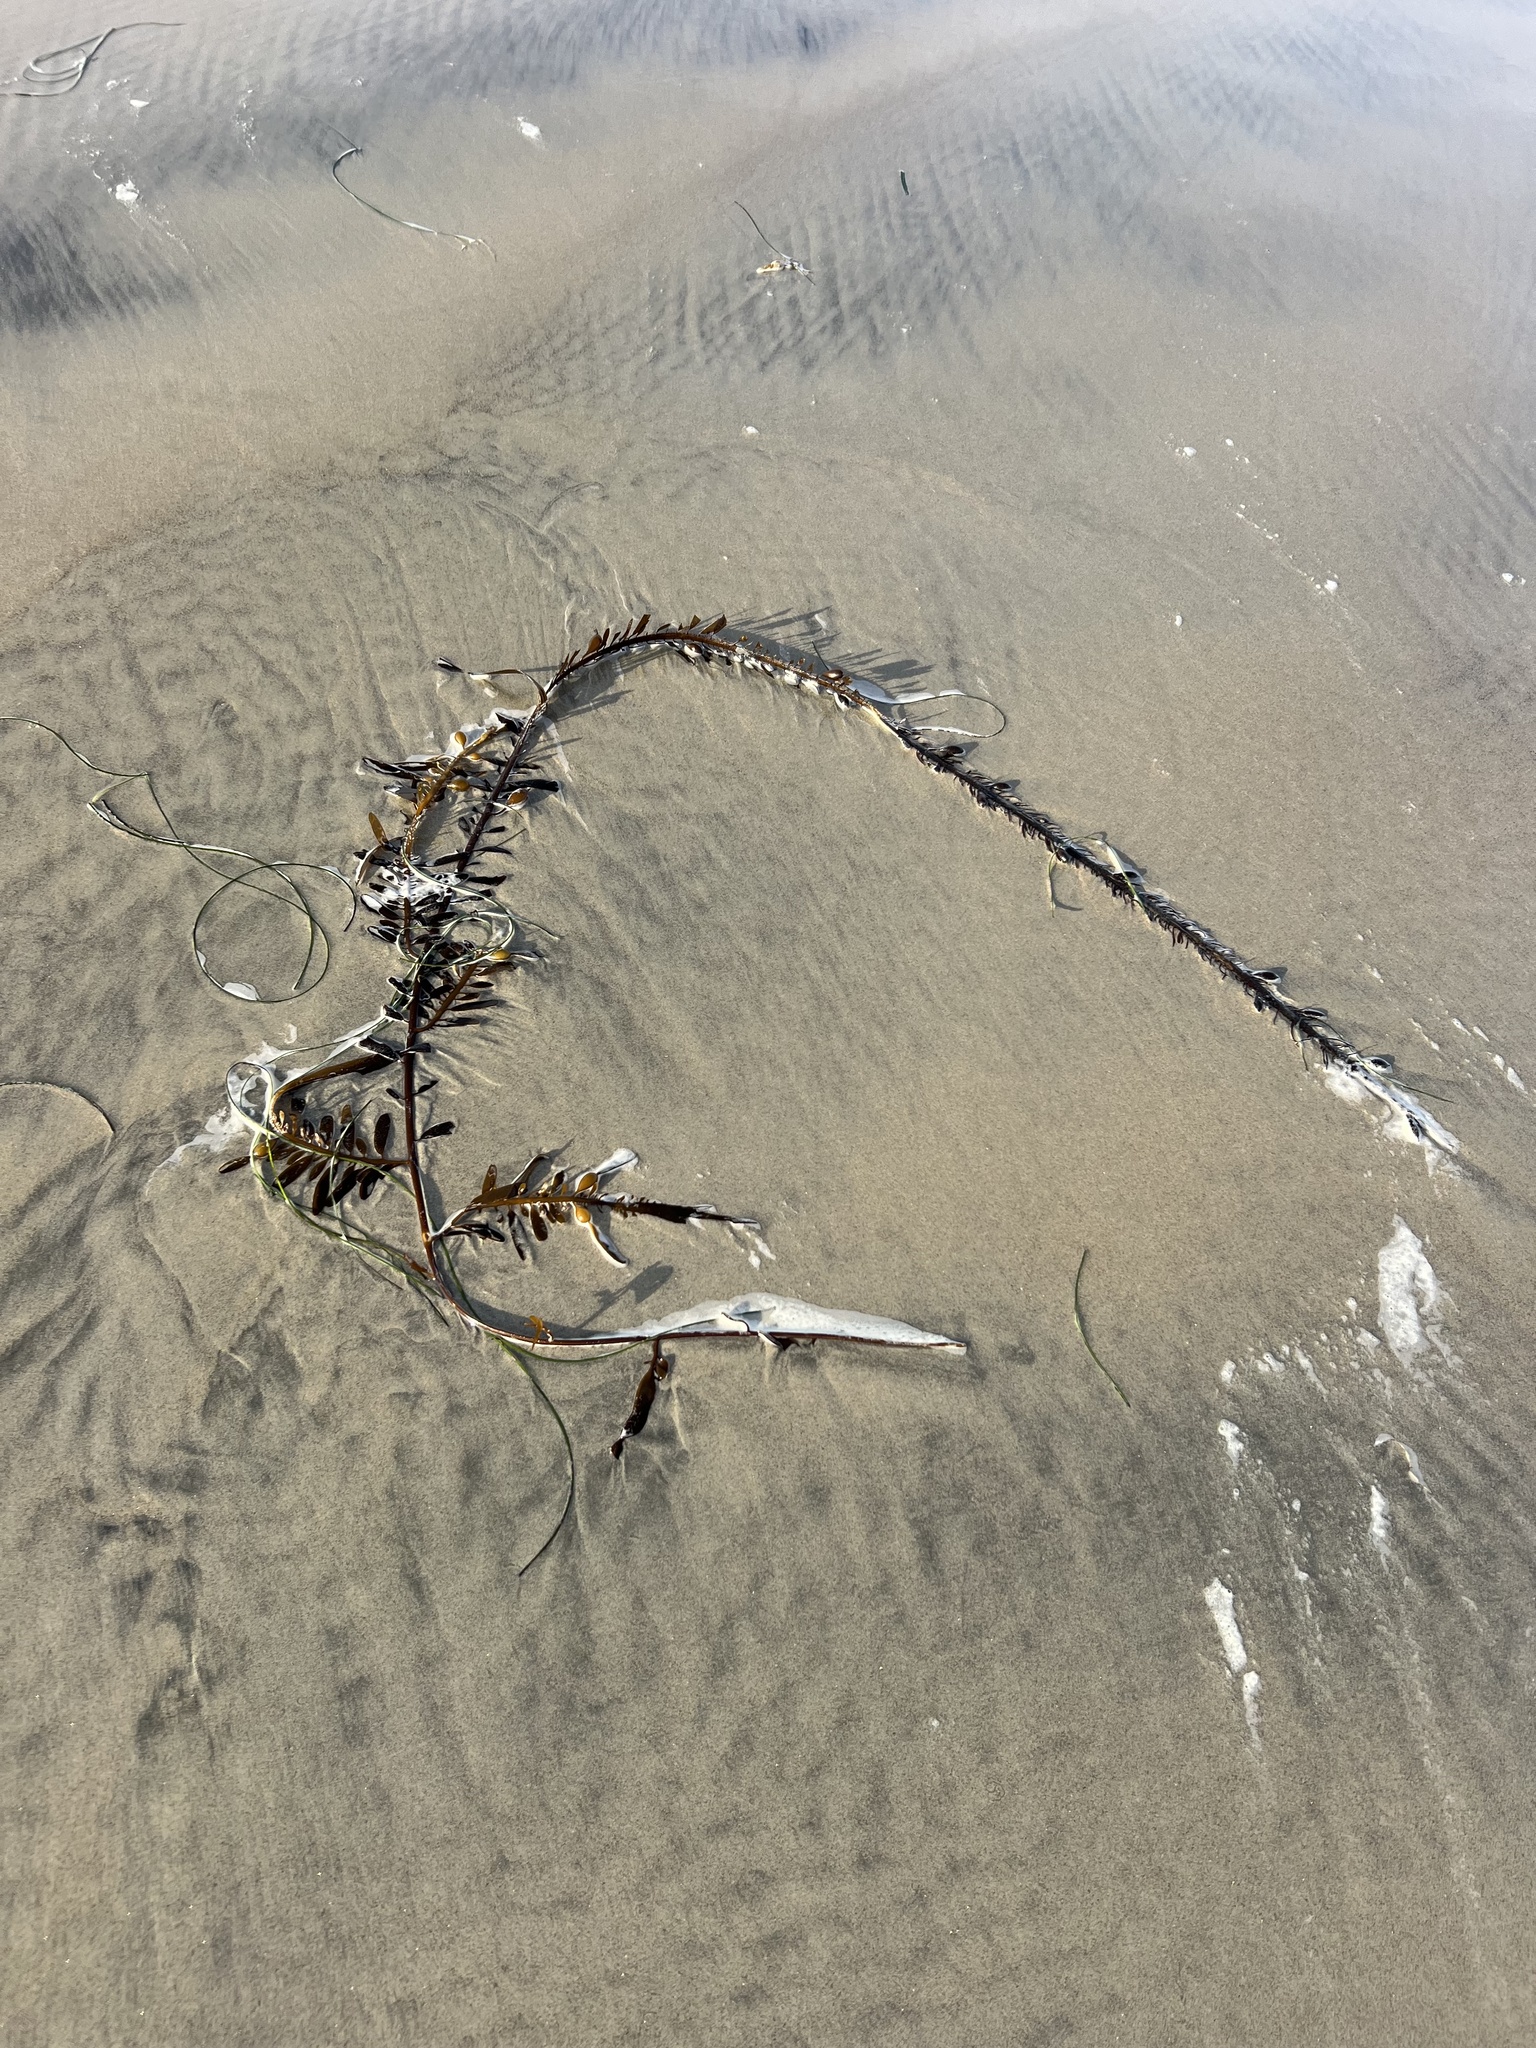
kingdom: Chromista
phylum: Ochrophyta
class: Phaeophyceae
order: Laminariales
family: Lessoniaceae
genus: Egregia
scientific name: Egregia menziesii
